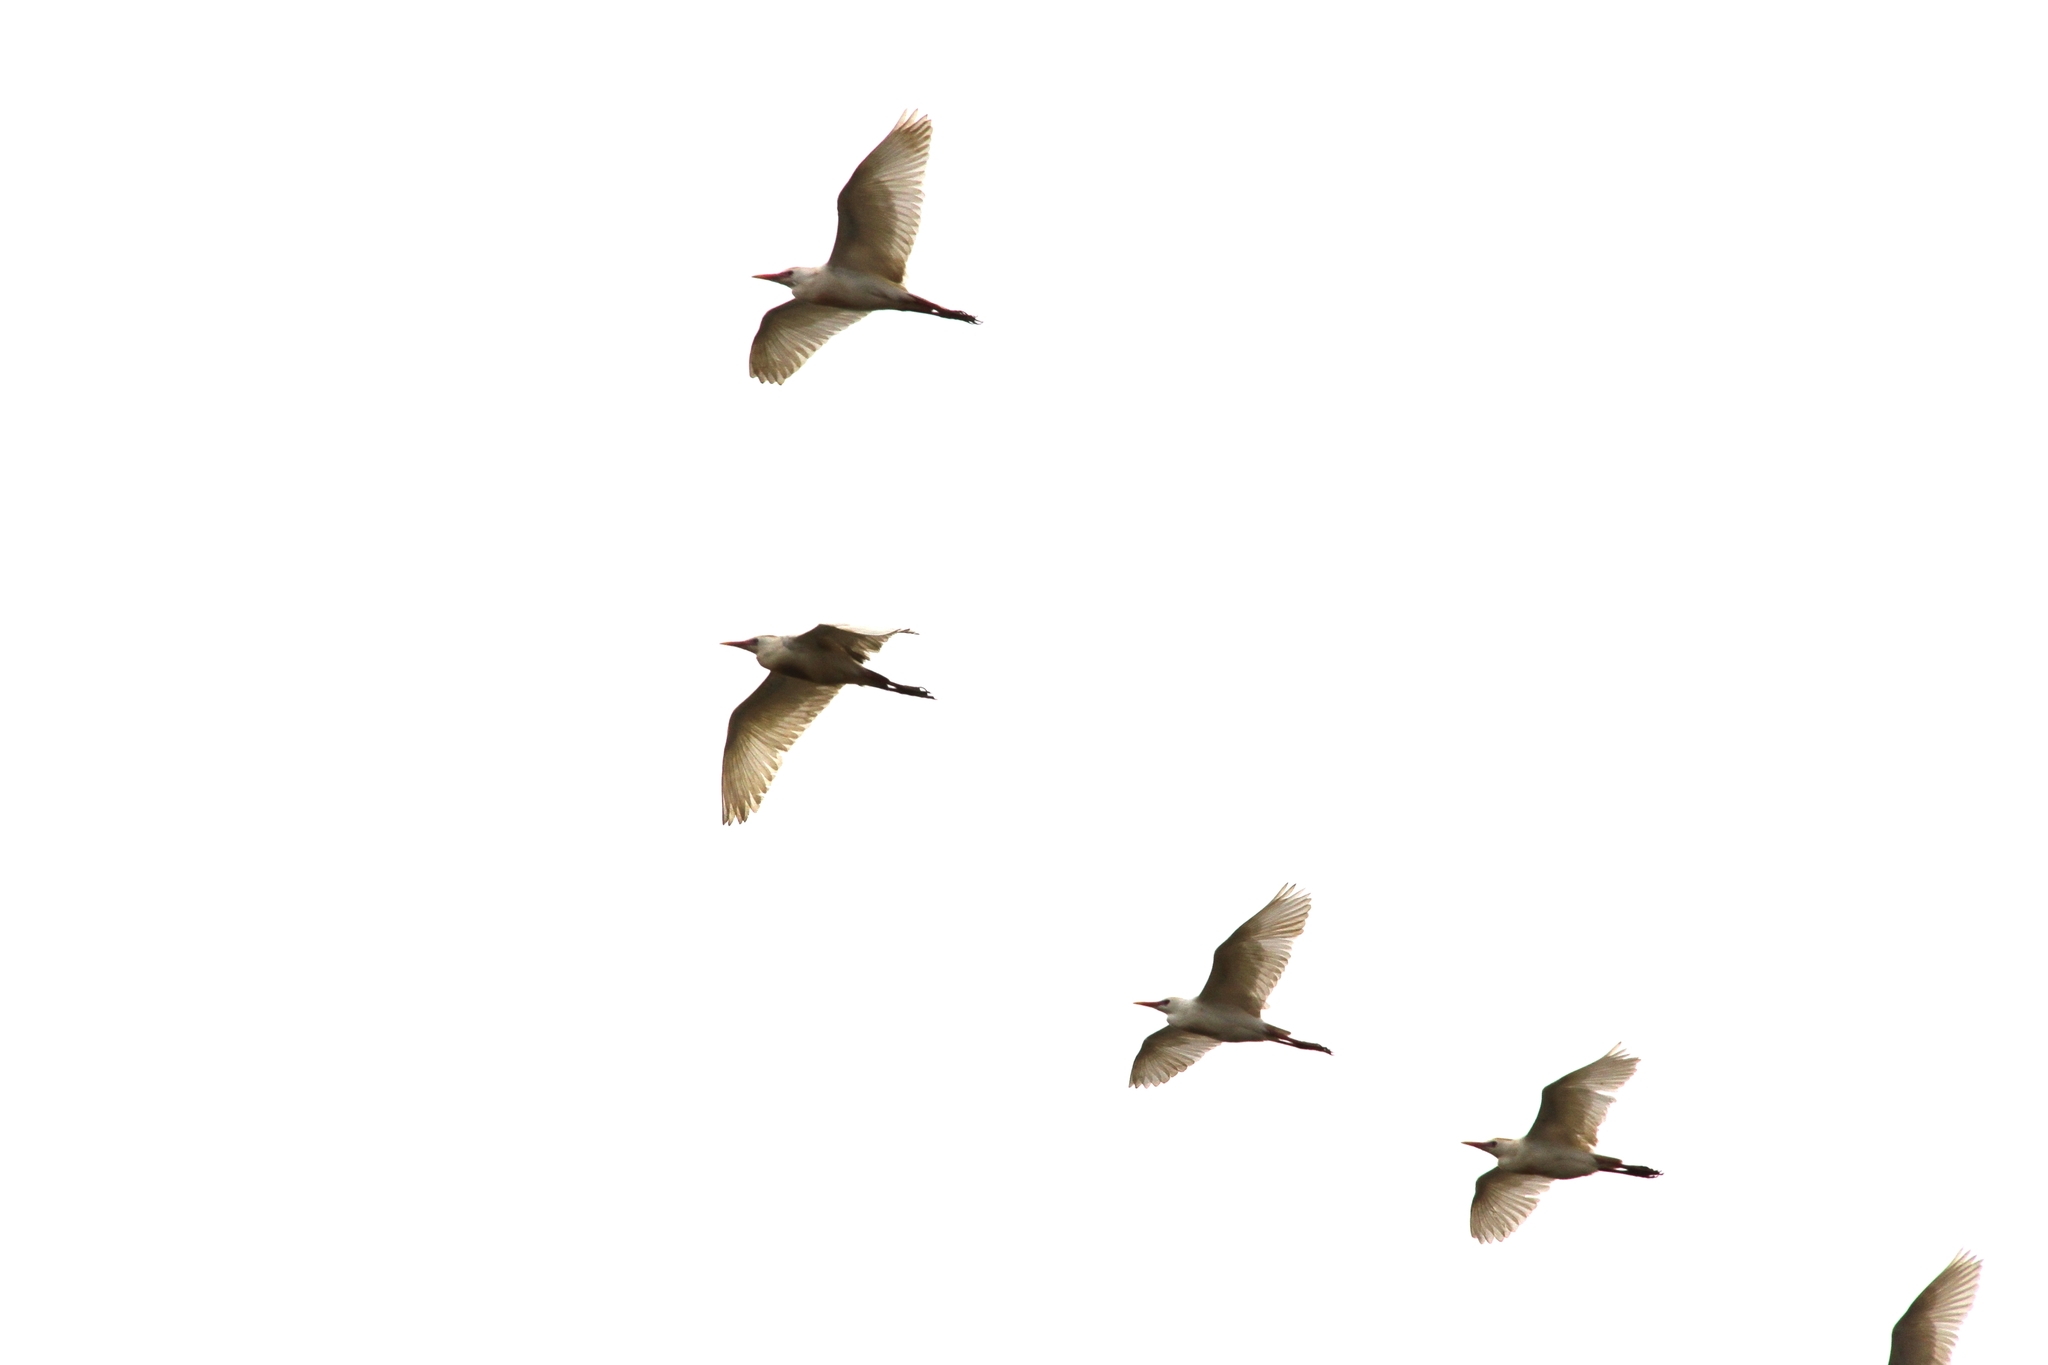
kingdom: Animalia
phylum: Chordata
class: Aves
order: Pelecaniformes
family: Ardeidae
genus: Bubulcus
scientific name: Bubulcus ibis
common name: Cattle egret
